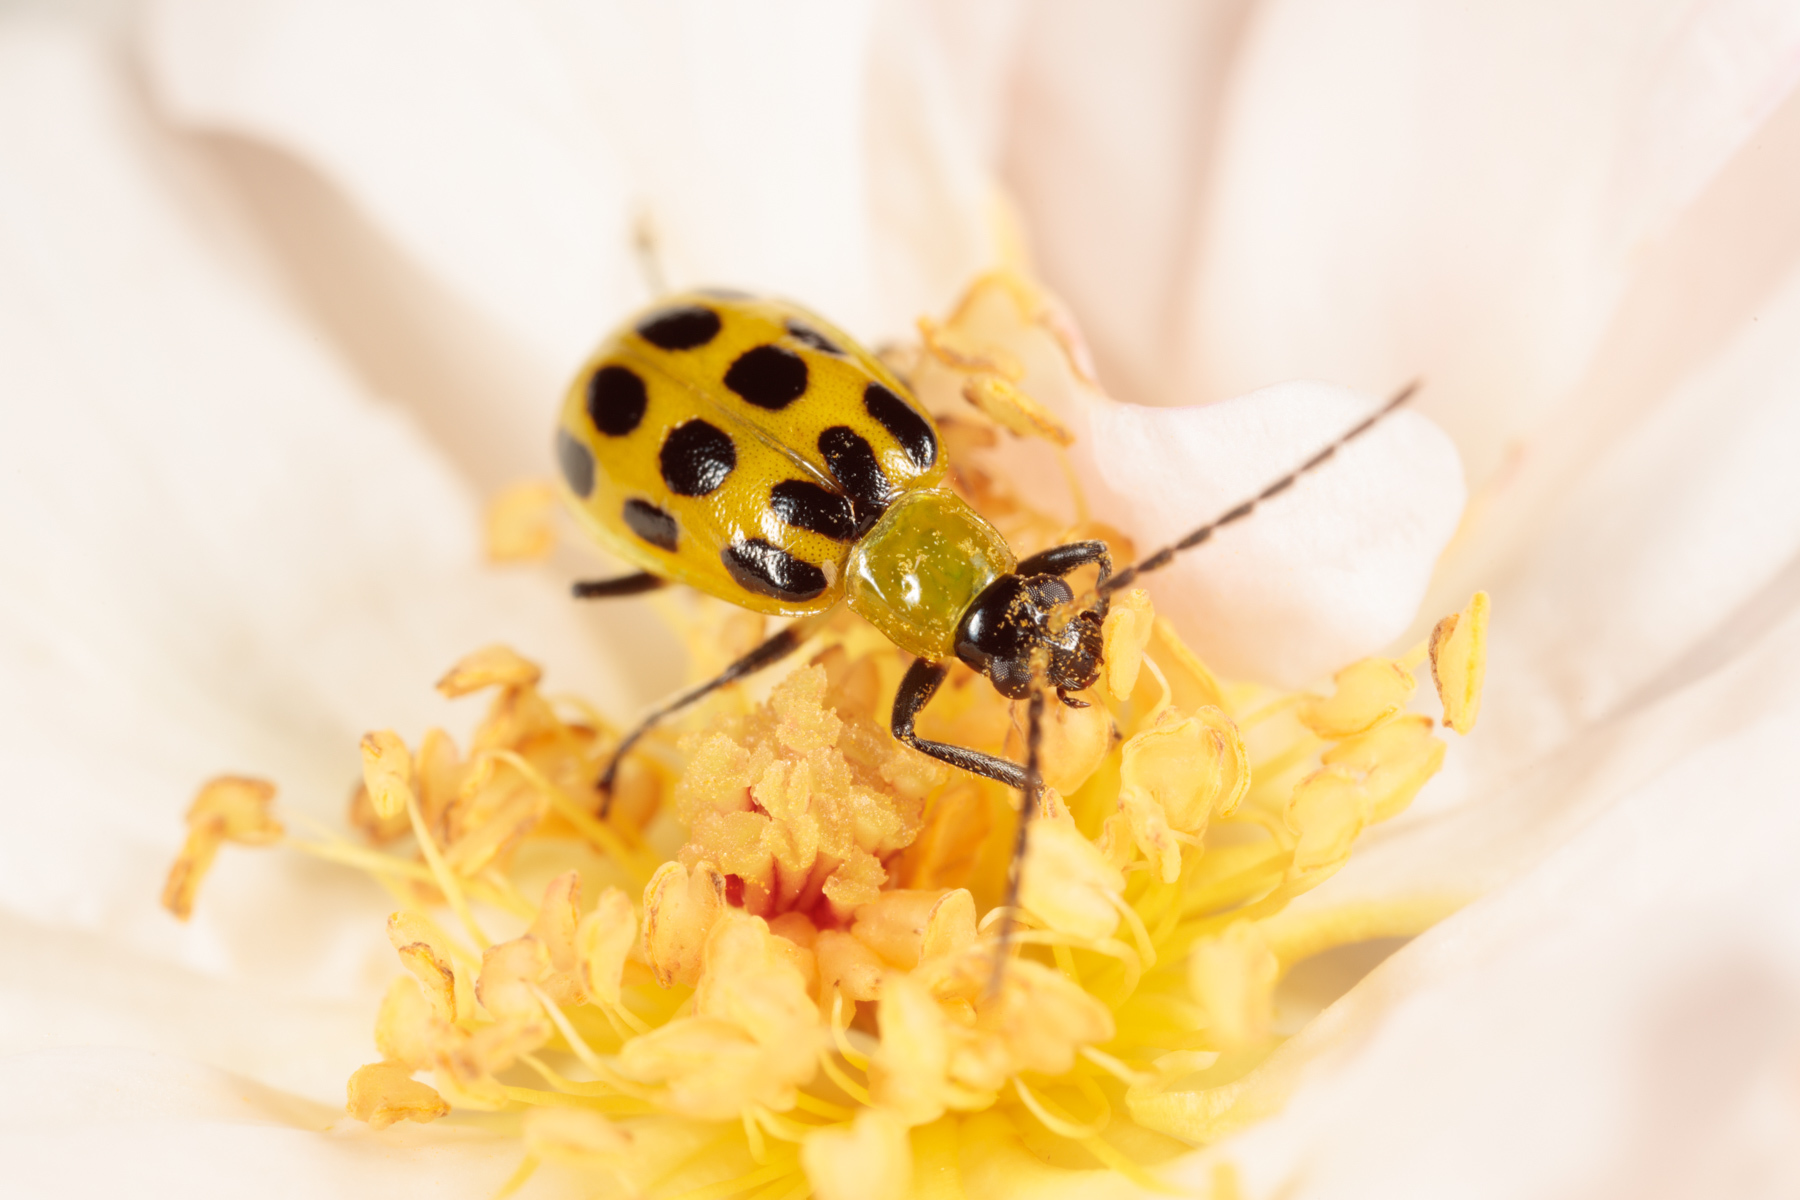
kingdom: Animalia
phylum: Arthropoda
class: Insecta
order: Coleoptera
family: Chrysomelidae
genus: Diabrotica
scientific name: Diabrotica undecimpunctata
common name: Spotted cucumber beetle
